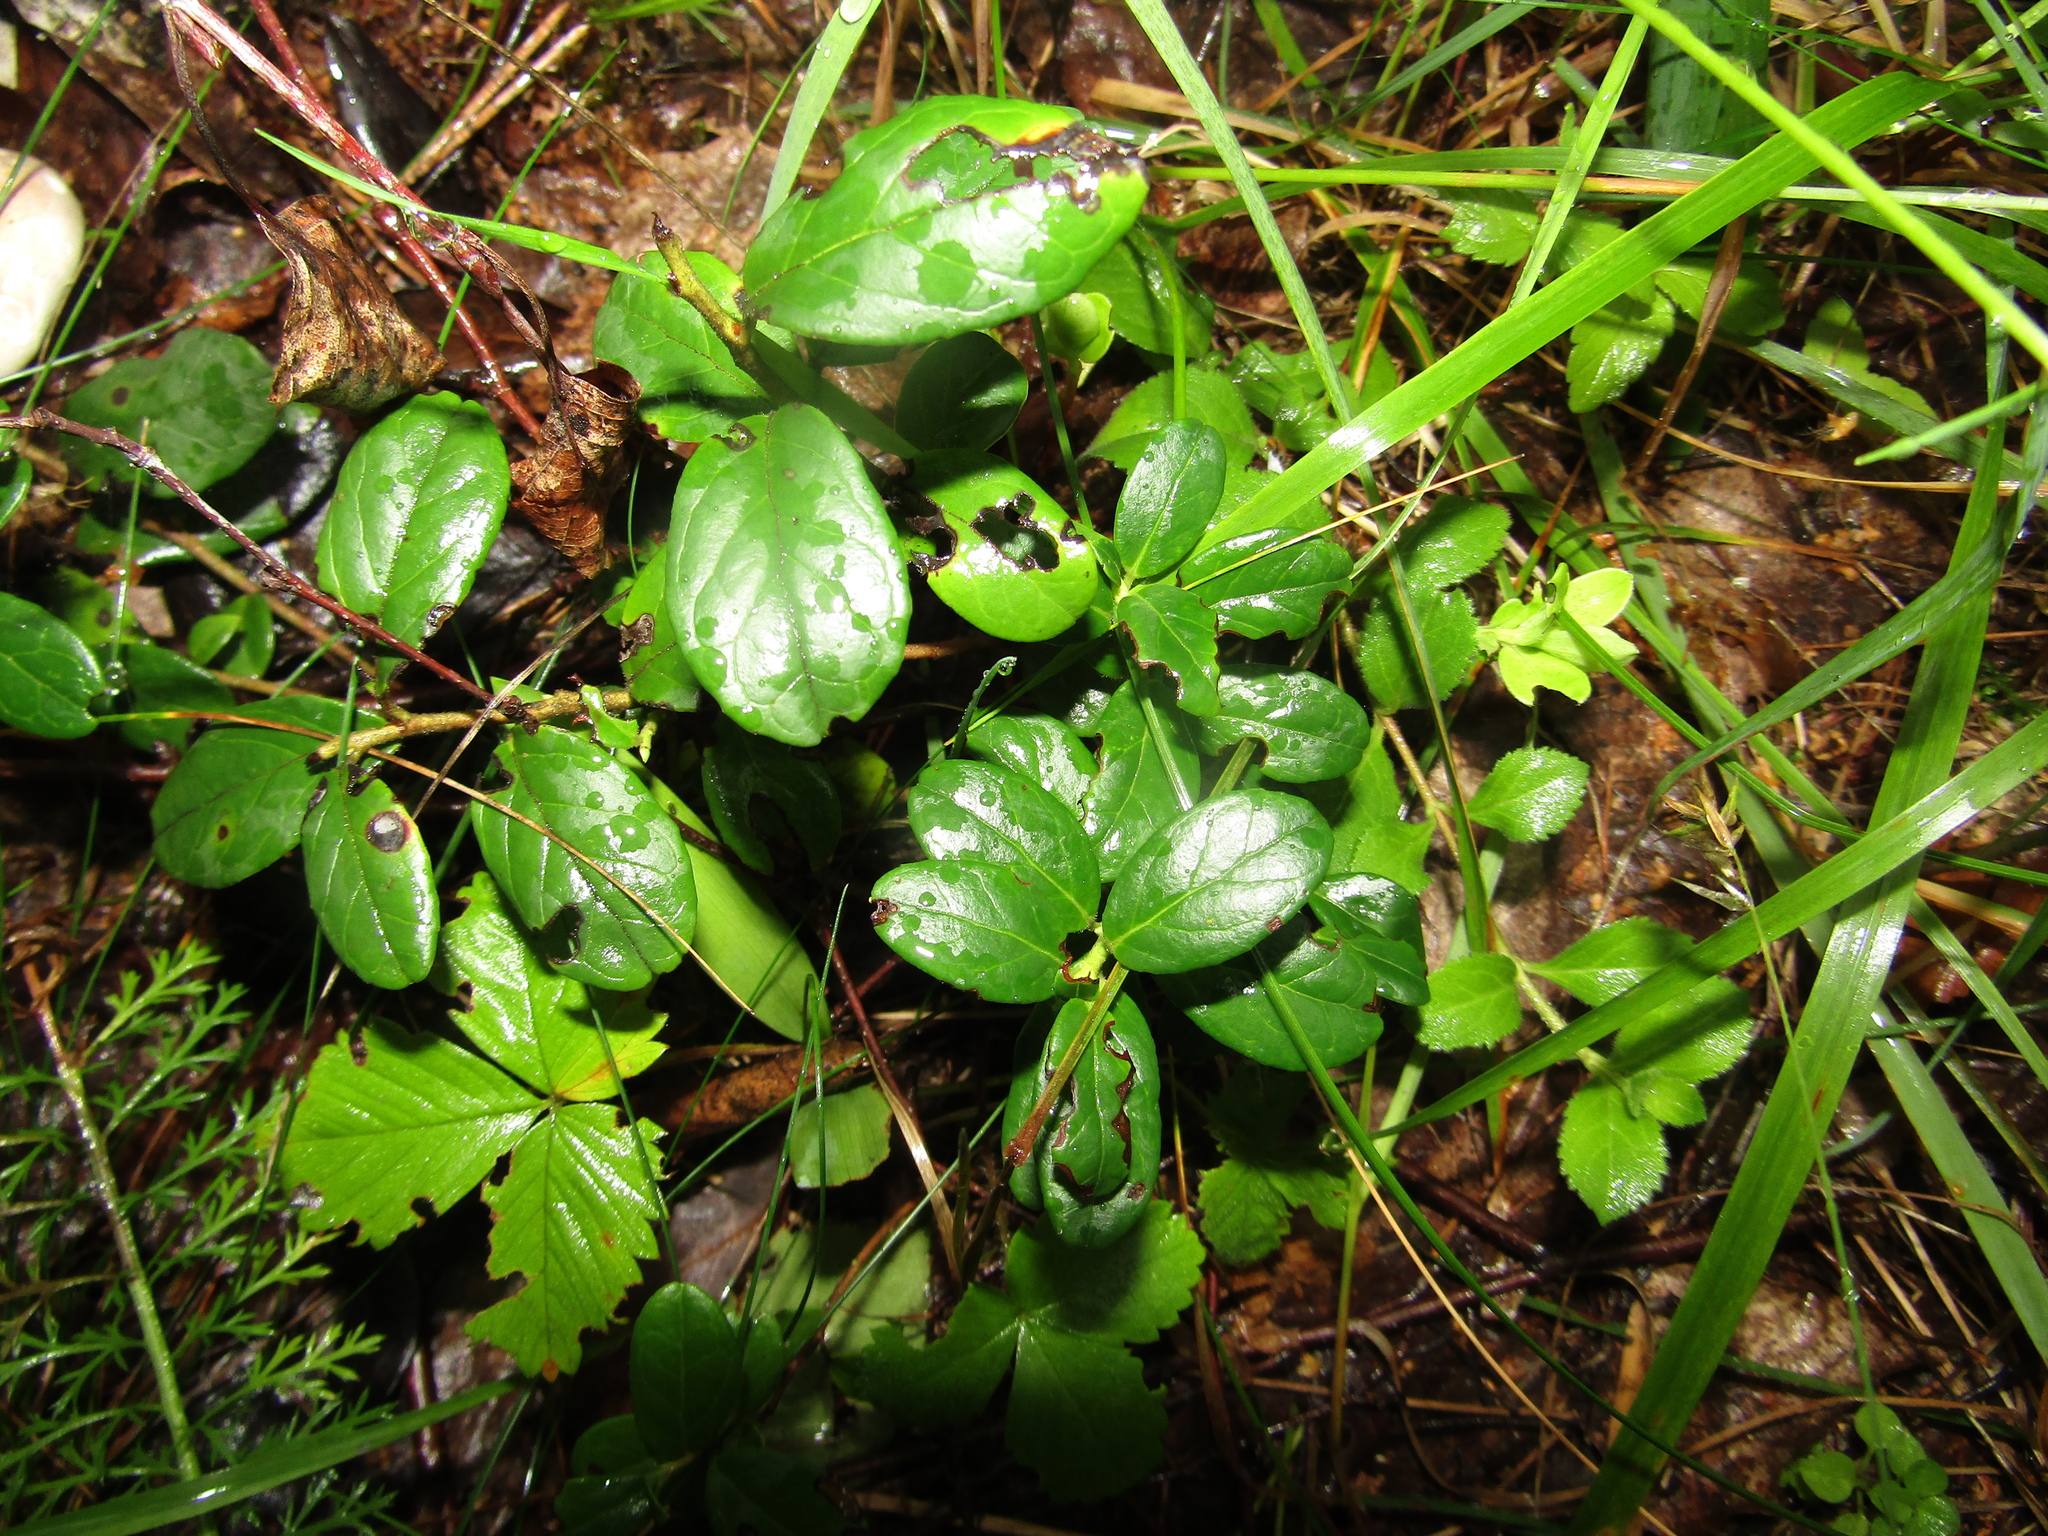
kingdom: Plantae
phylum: Tracheophyta
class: Magnoliopsida
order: Ericales
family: Ericaceae
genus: Vaccinium
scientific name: Vaccinium vitis-idaea
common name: Cowberry
